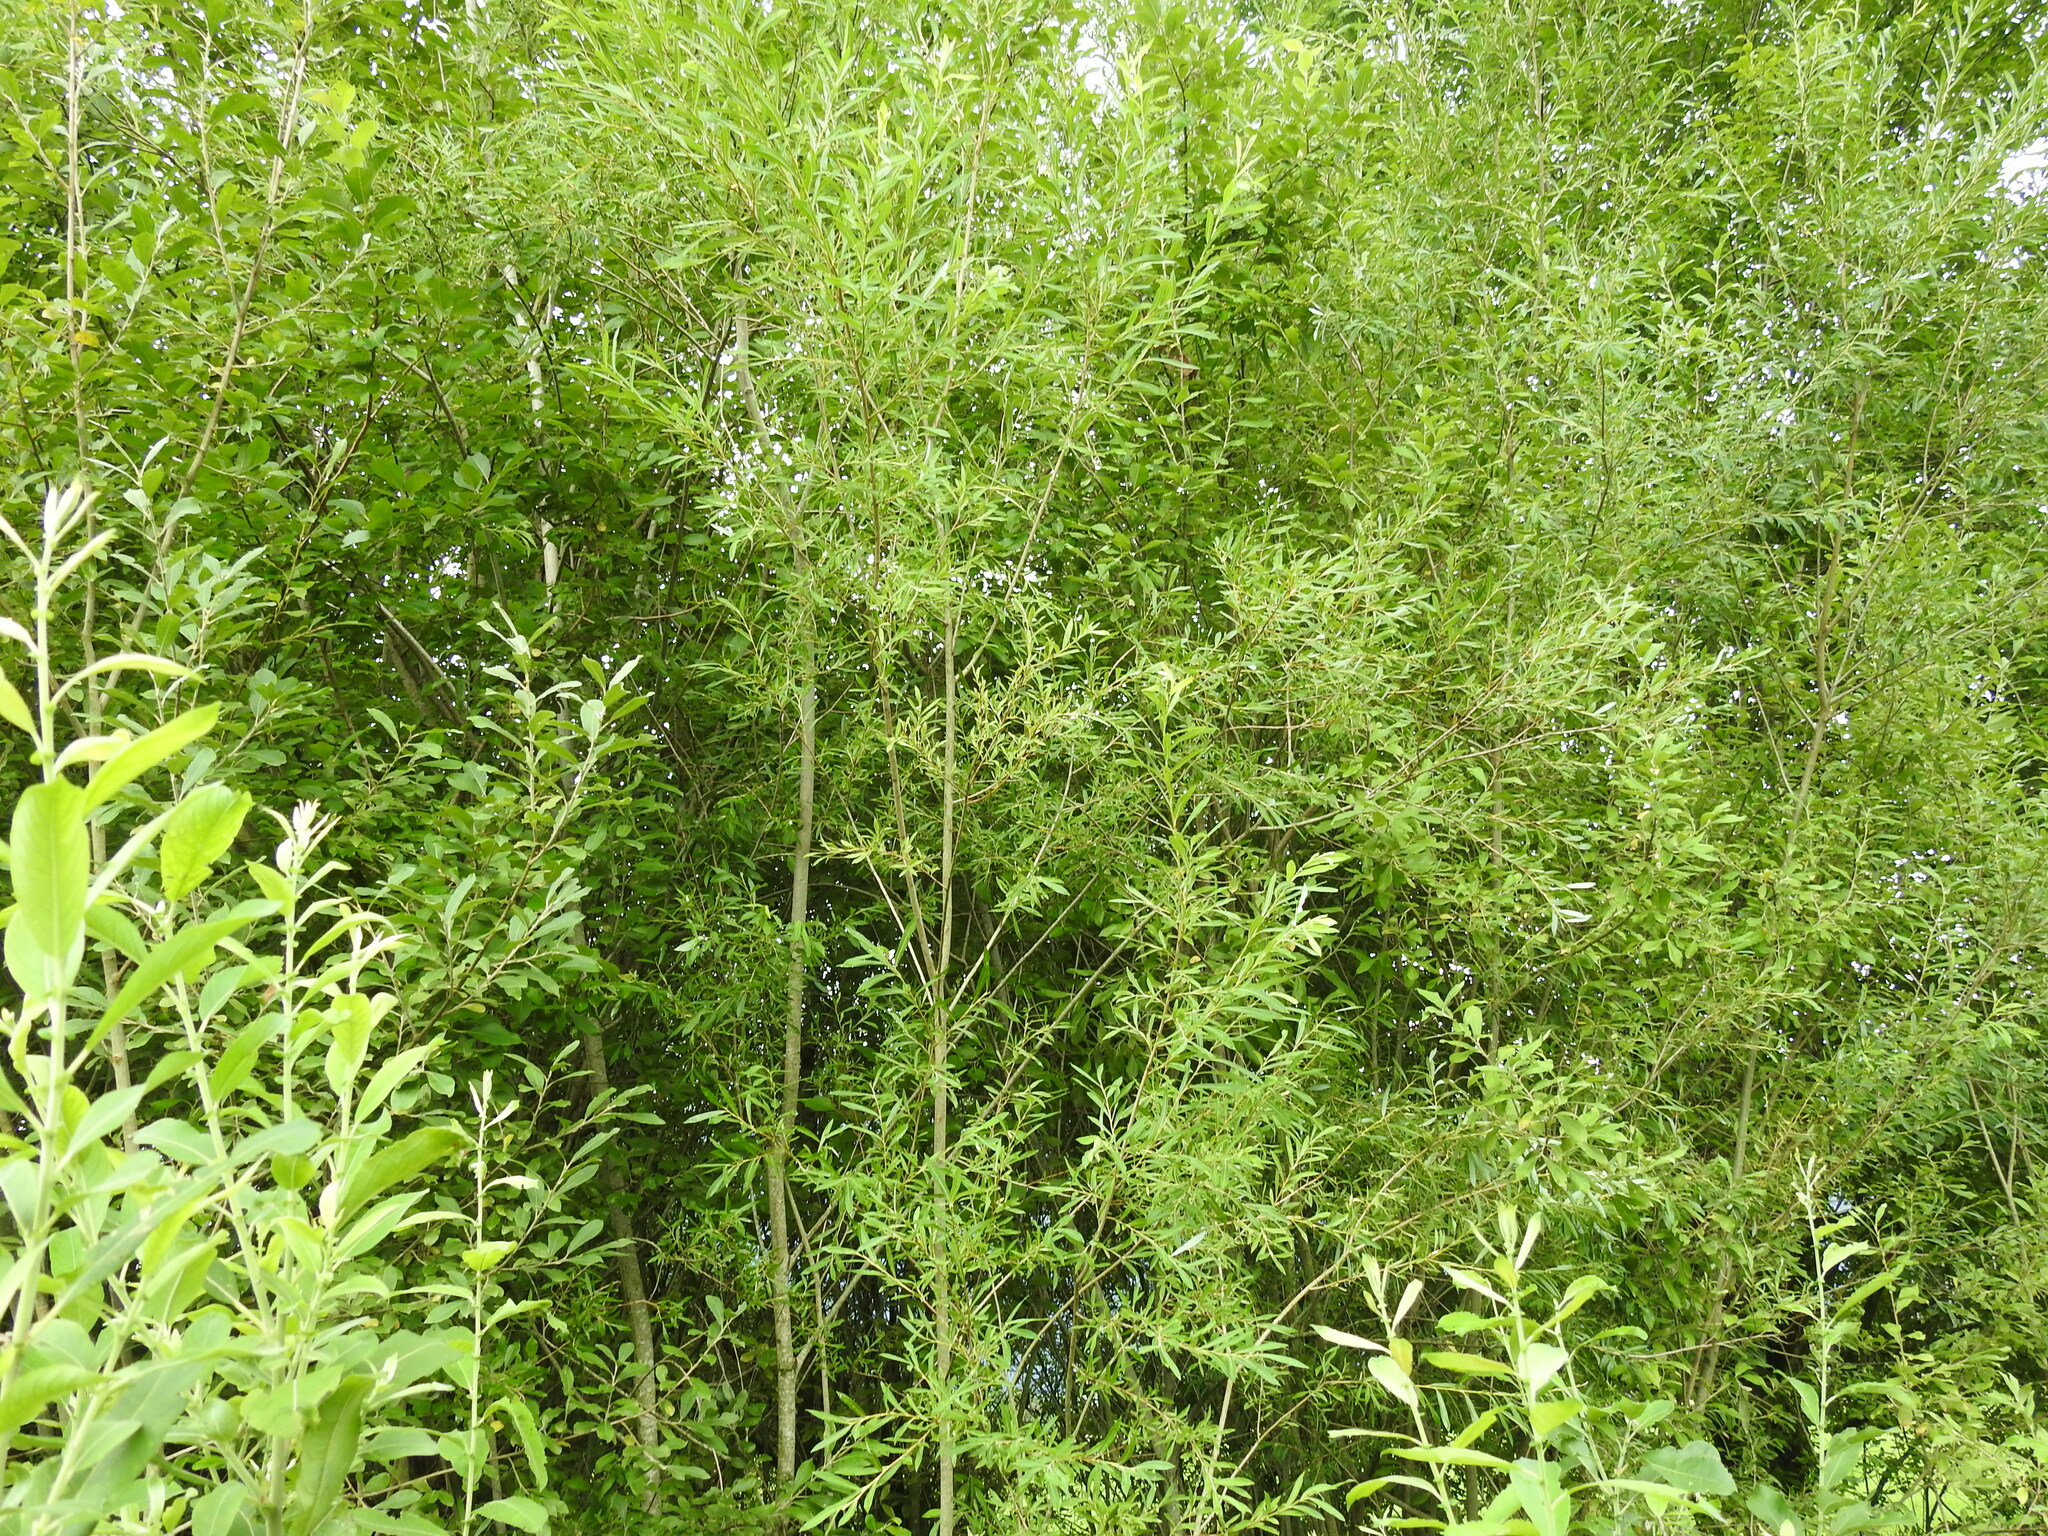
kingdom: Plantae
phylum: Tracheophyta
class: Magnoliopsida
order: Malpighiales
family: Salicaceae
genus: Salix
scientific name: Salix purpurea
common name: Purple willow
